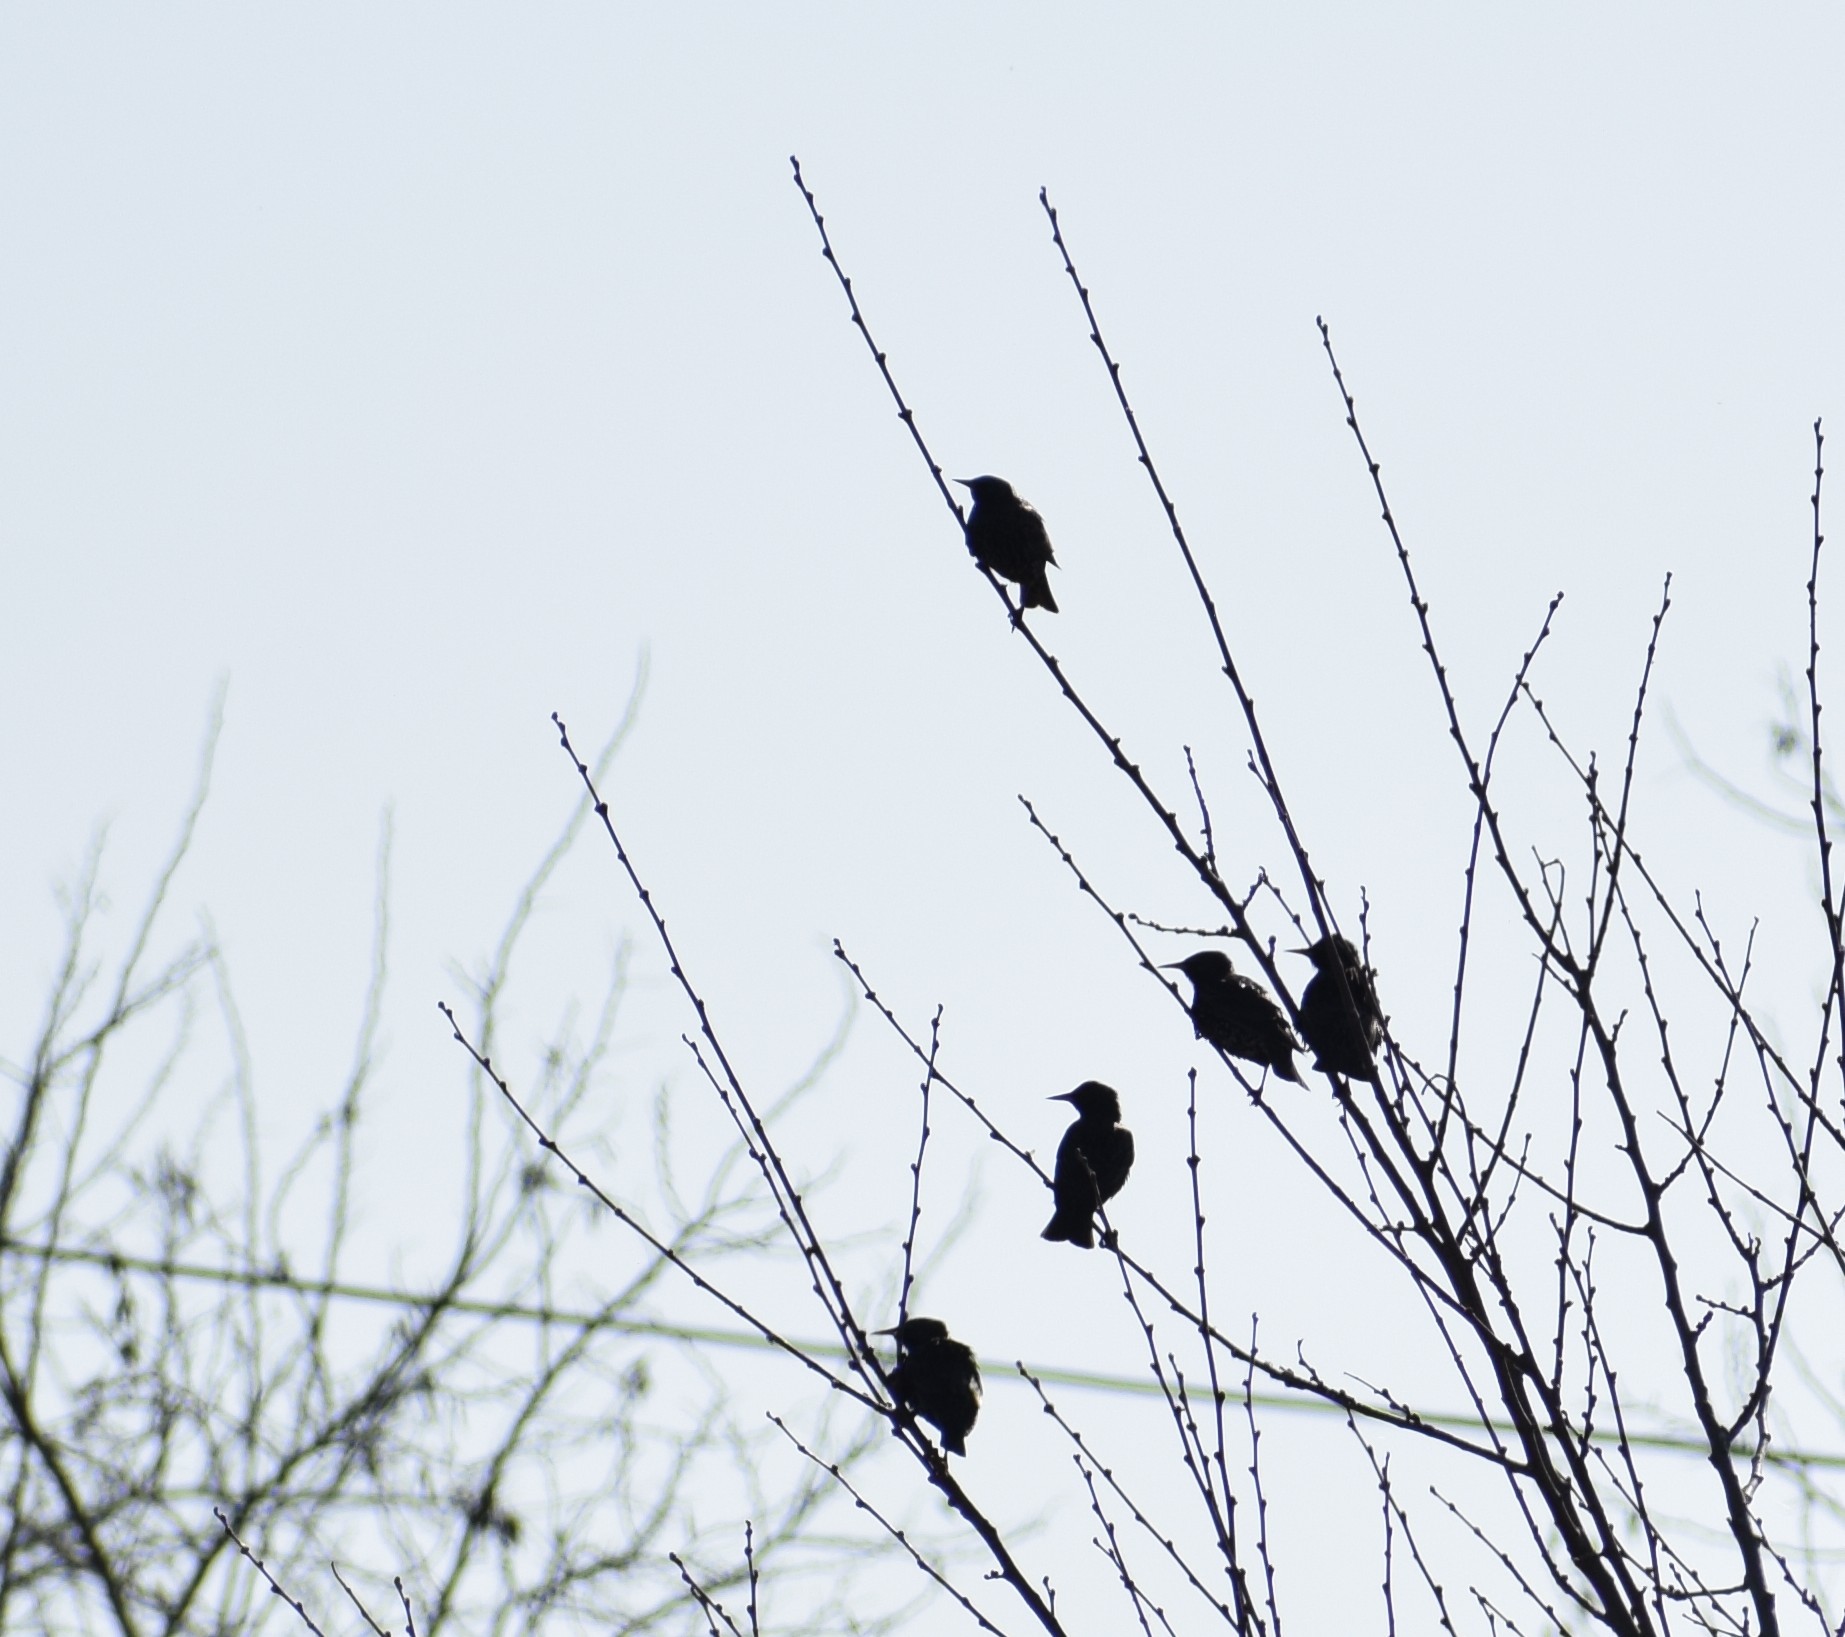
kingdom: Animalia
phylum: Chordata
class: Aves
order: Passeriformes
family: Sturnidae
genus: Sturnus
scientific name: Sturnus vulgaris
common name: Common starling
